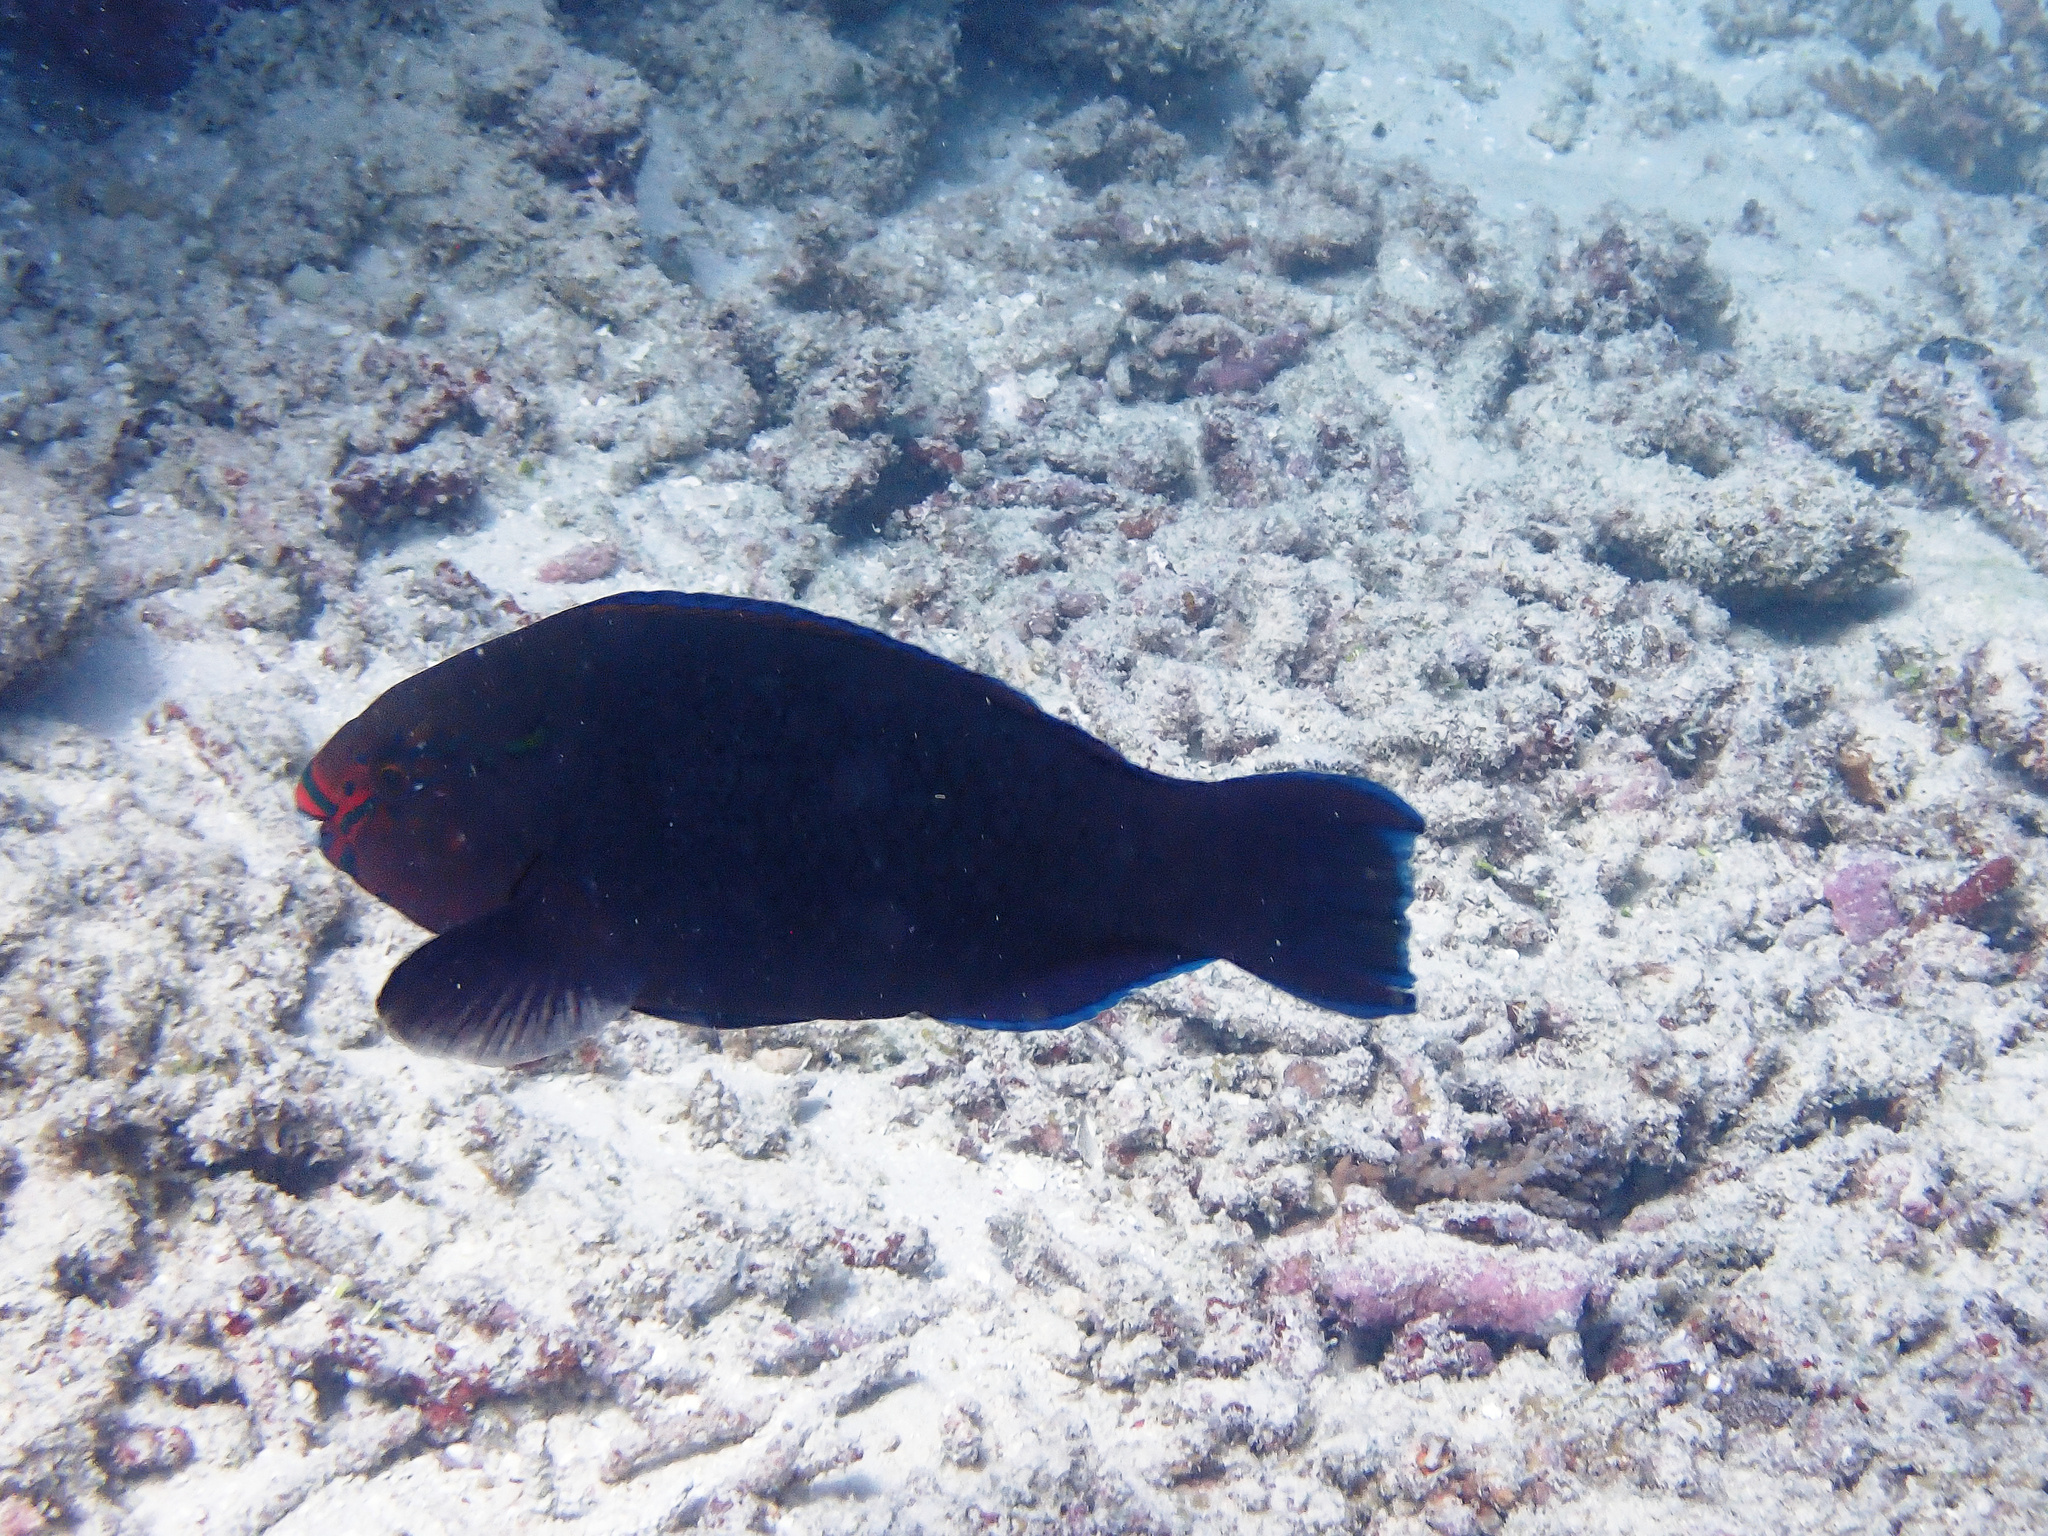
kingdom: Animalia
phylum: Chordata
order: Perciformes
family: Scaridae
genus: Scarus
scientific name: Scarus niger
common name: Dusky parrotfish
